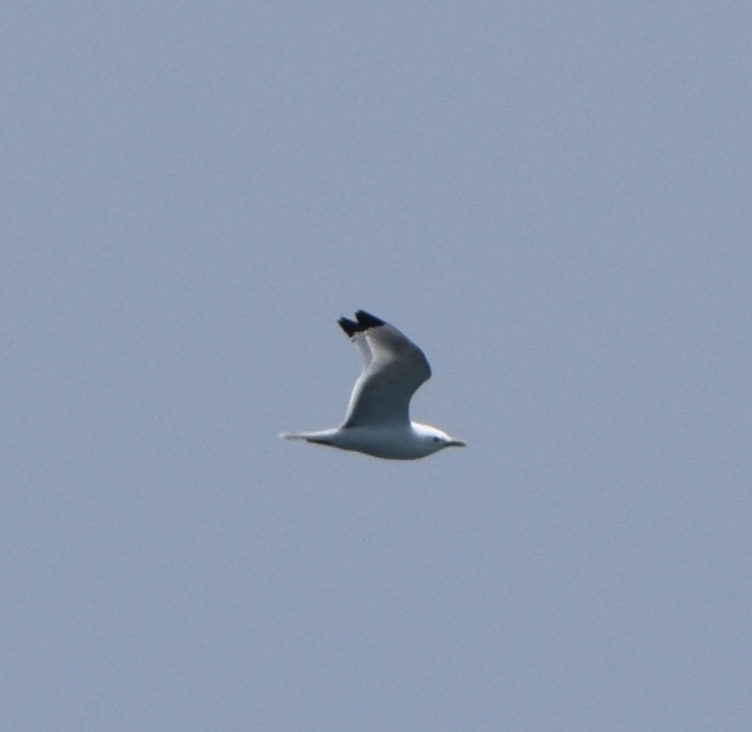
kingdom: Animalia
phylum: Chordata
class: Aves
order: Charadriiformes
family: Laridae
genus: Rissa
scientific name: Rissa tridactyla
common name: Black-legged kittiwake
